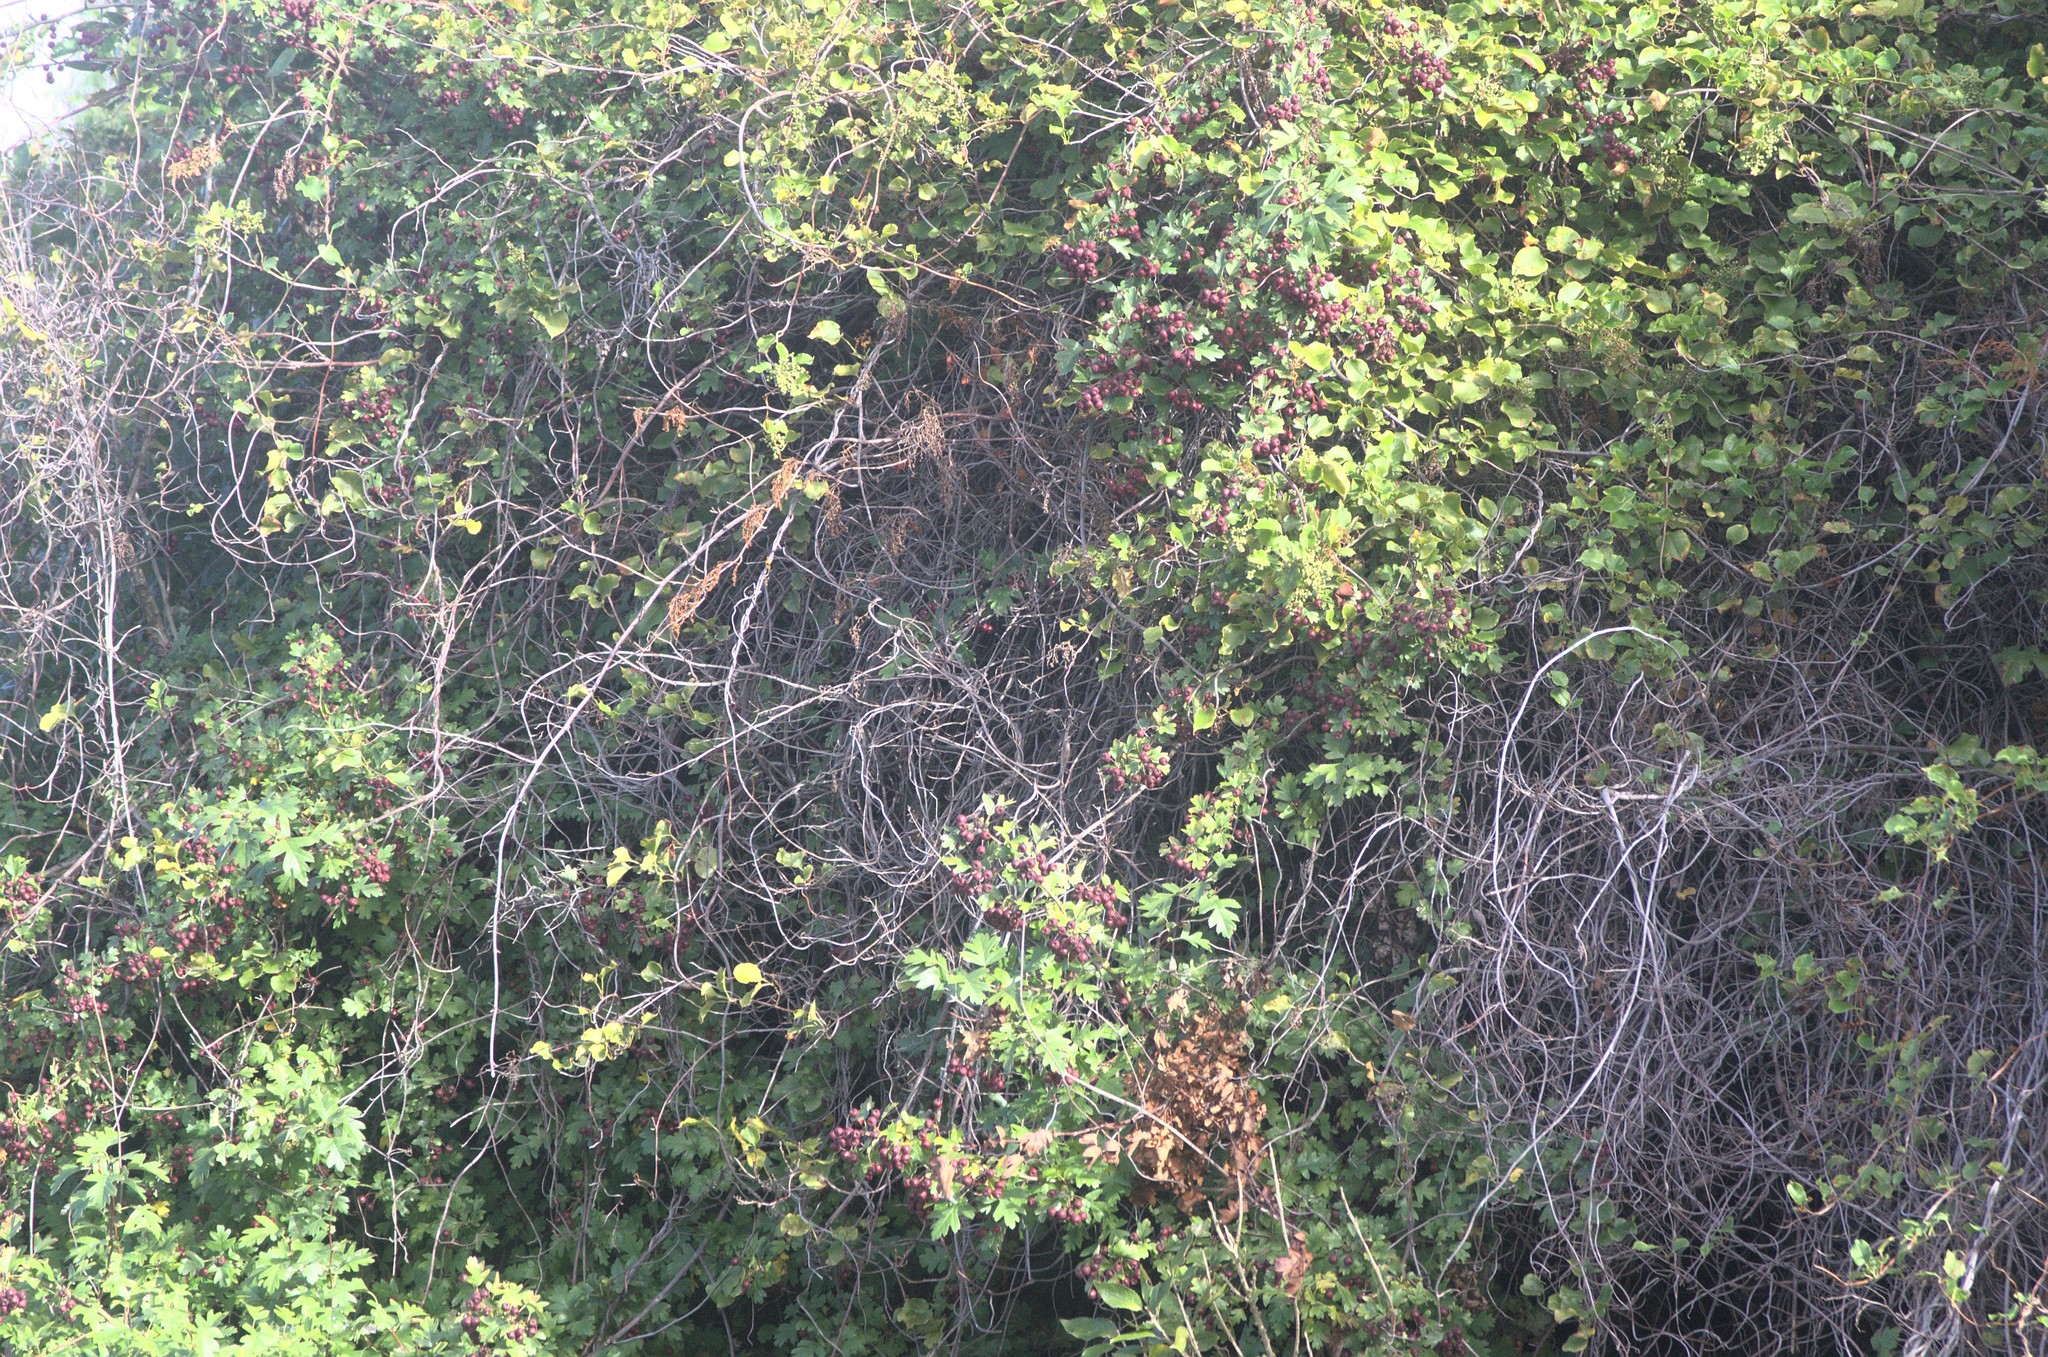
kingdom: Plantae
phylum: Tracheophyta
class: Magnoliopsida
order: Caryophyllales
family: Polygonaceae
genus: Muehlenbeckia
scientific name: Muehlenbeckia australis
